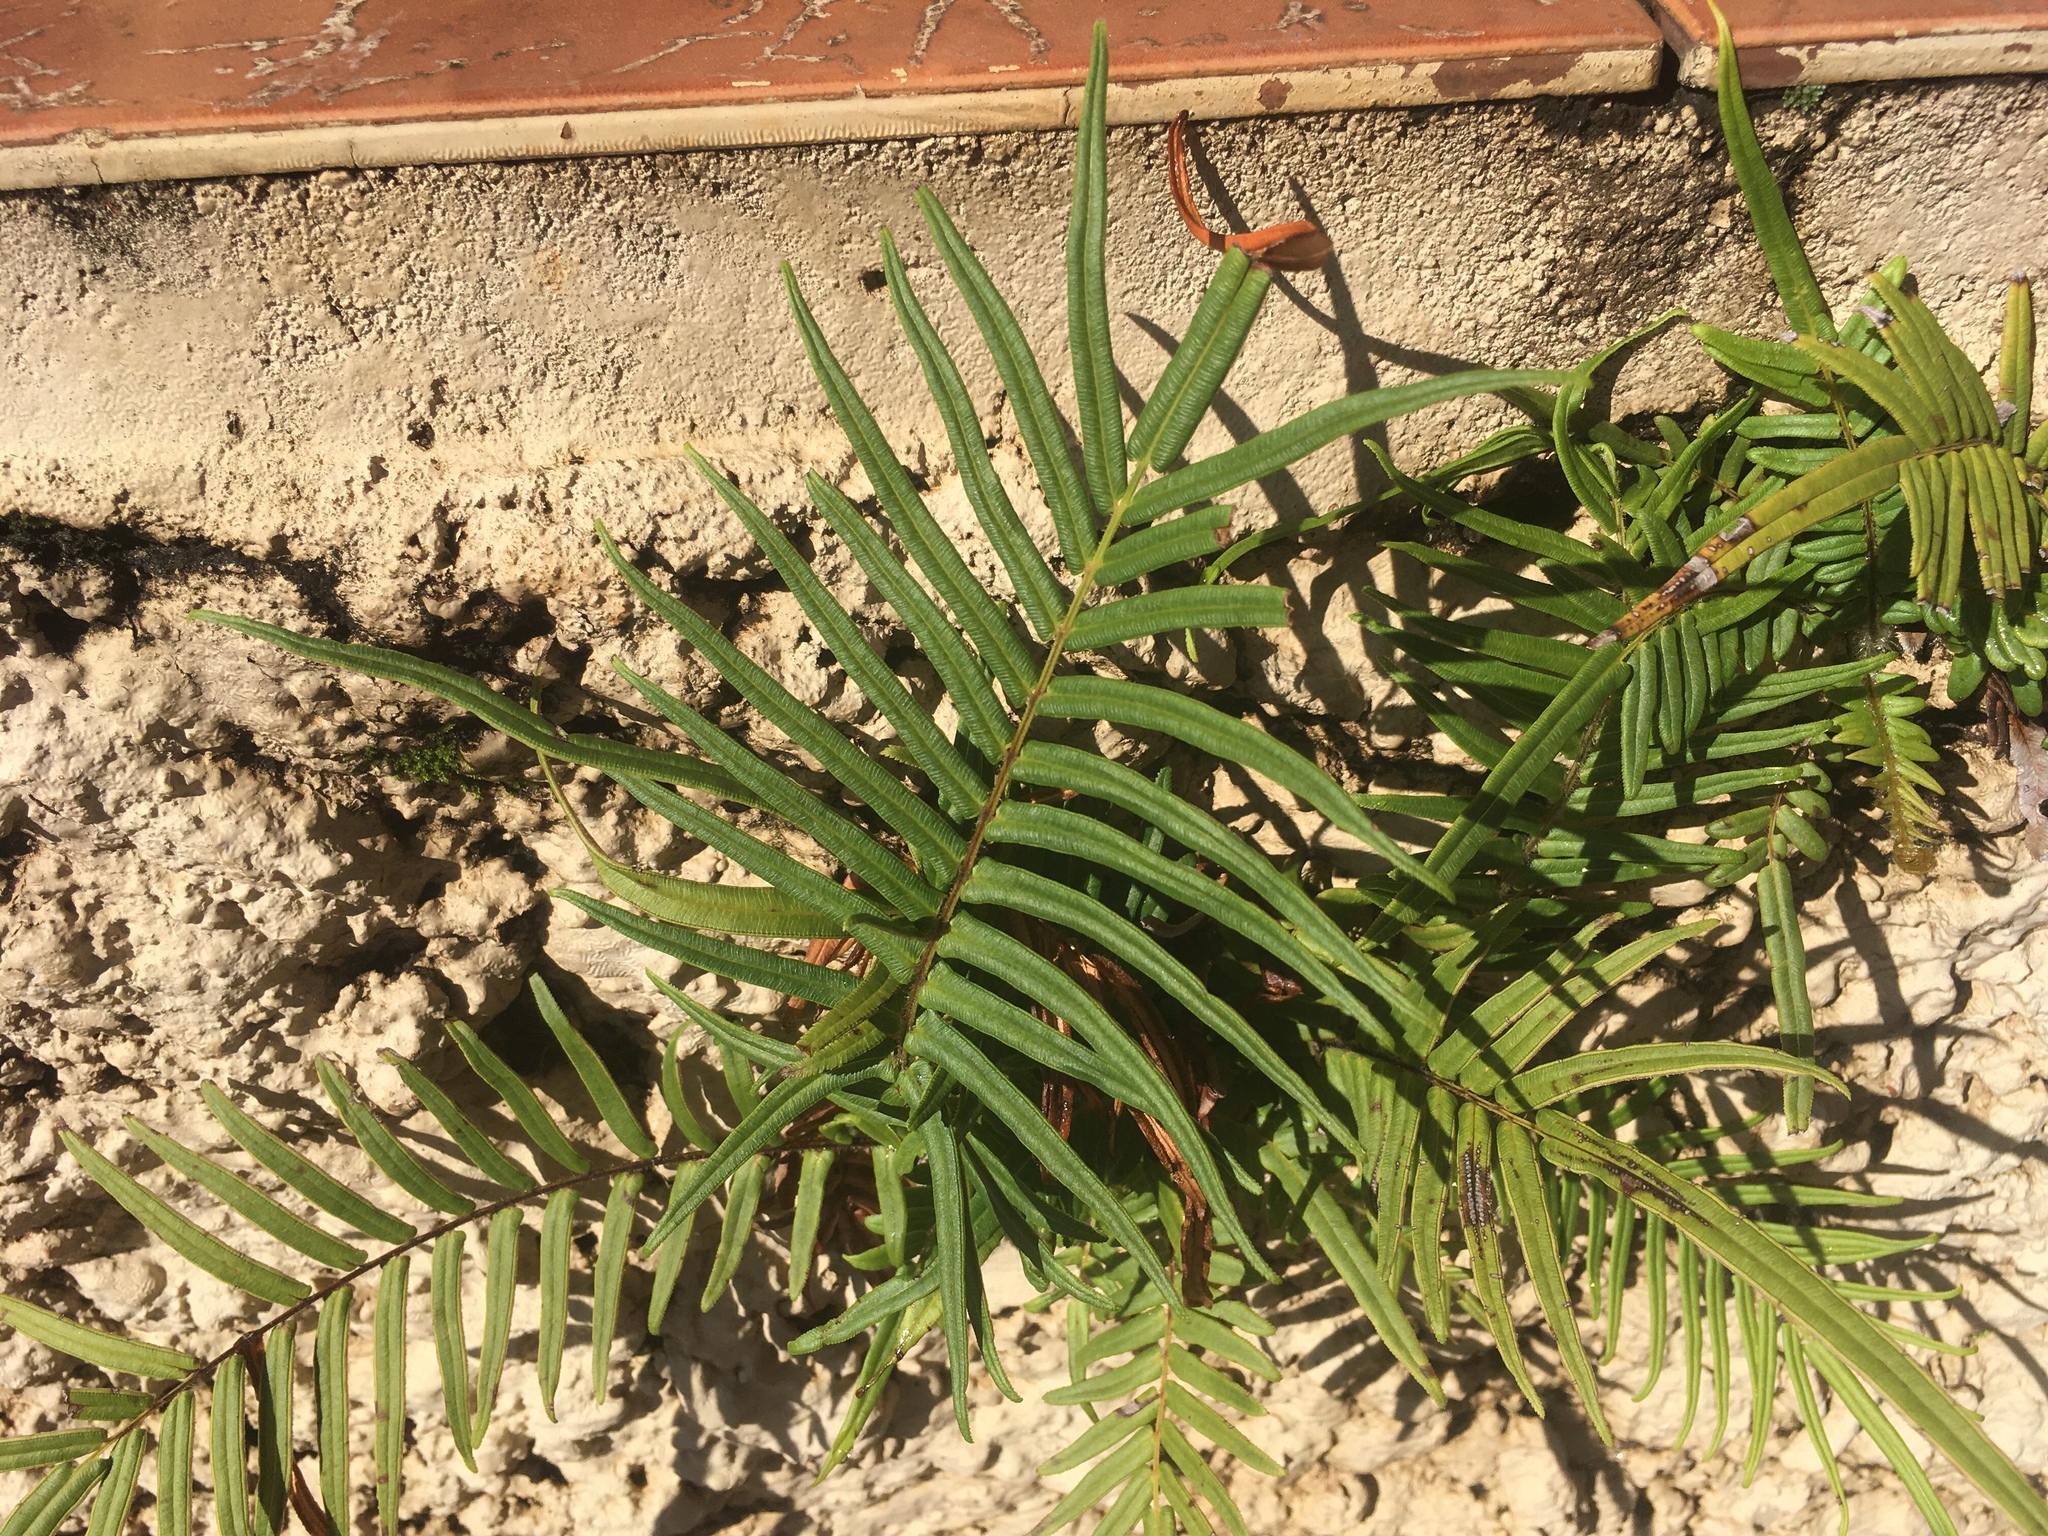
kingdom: Plantae
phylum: Tracheophyta
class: Polypodiopsida
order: Polypodiales
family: Pteridaceae
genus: Pteris
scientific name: Pteris vittata
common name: Ladder brake
